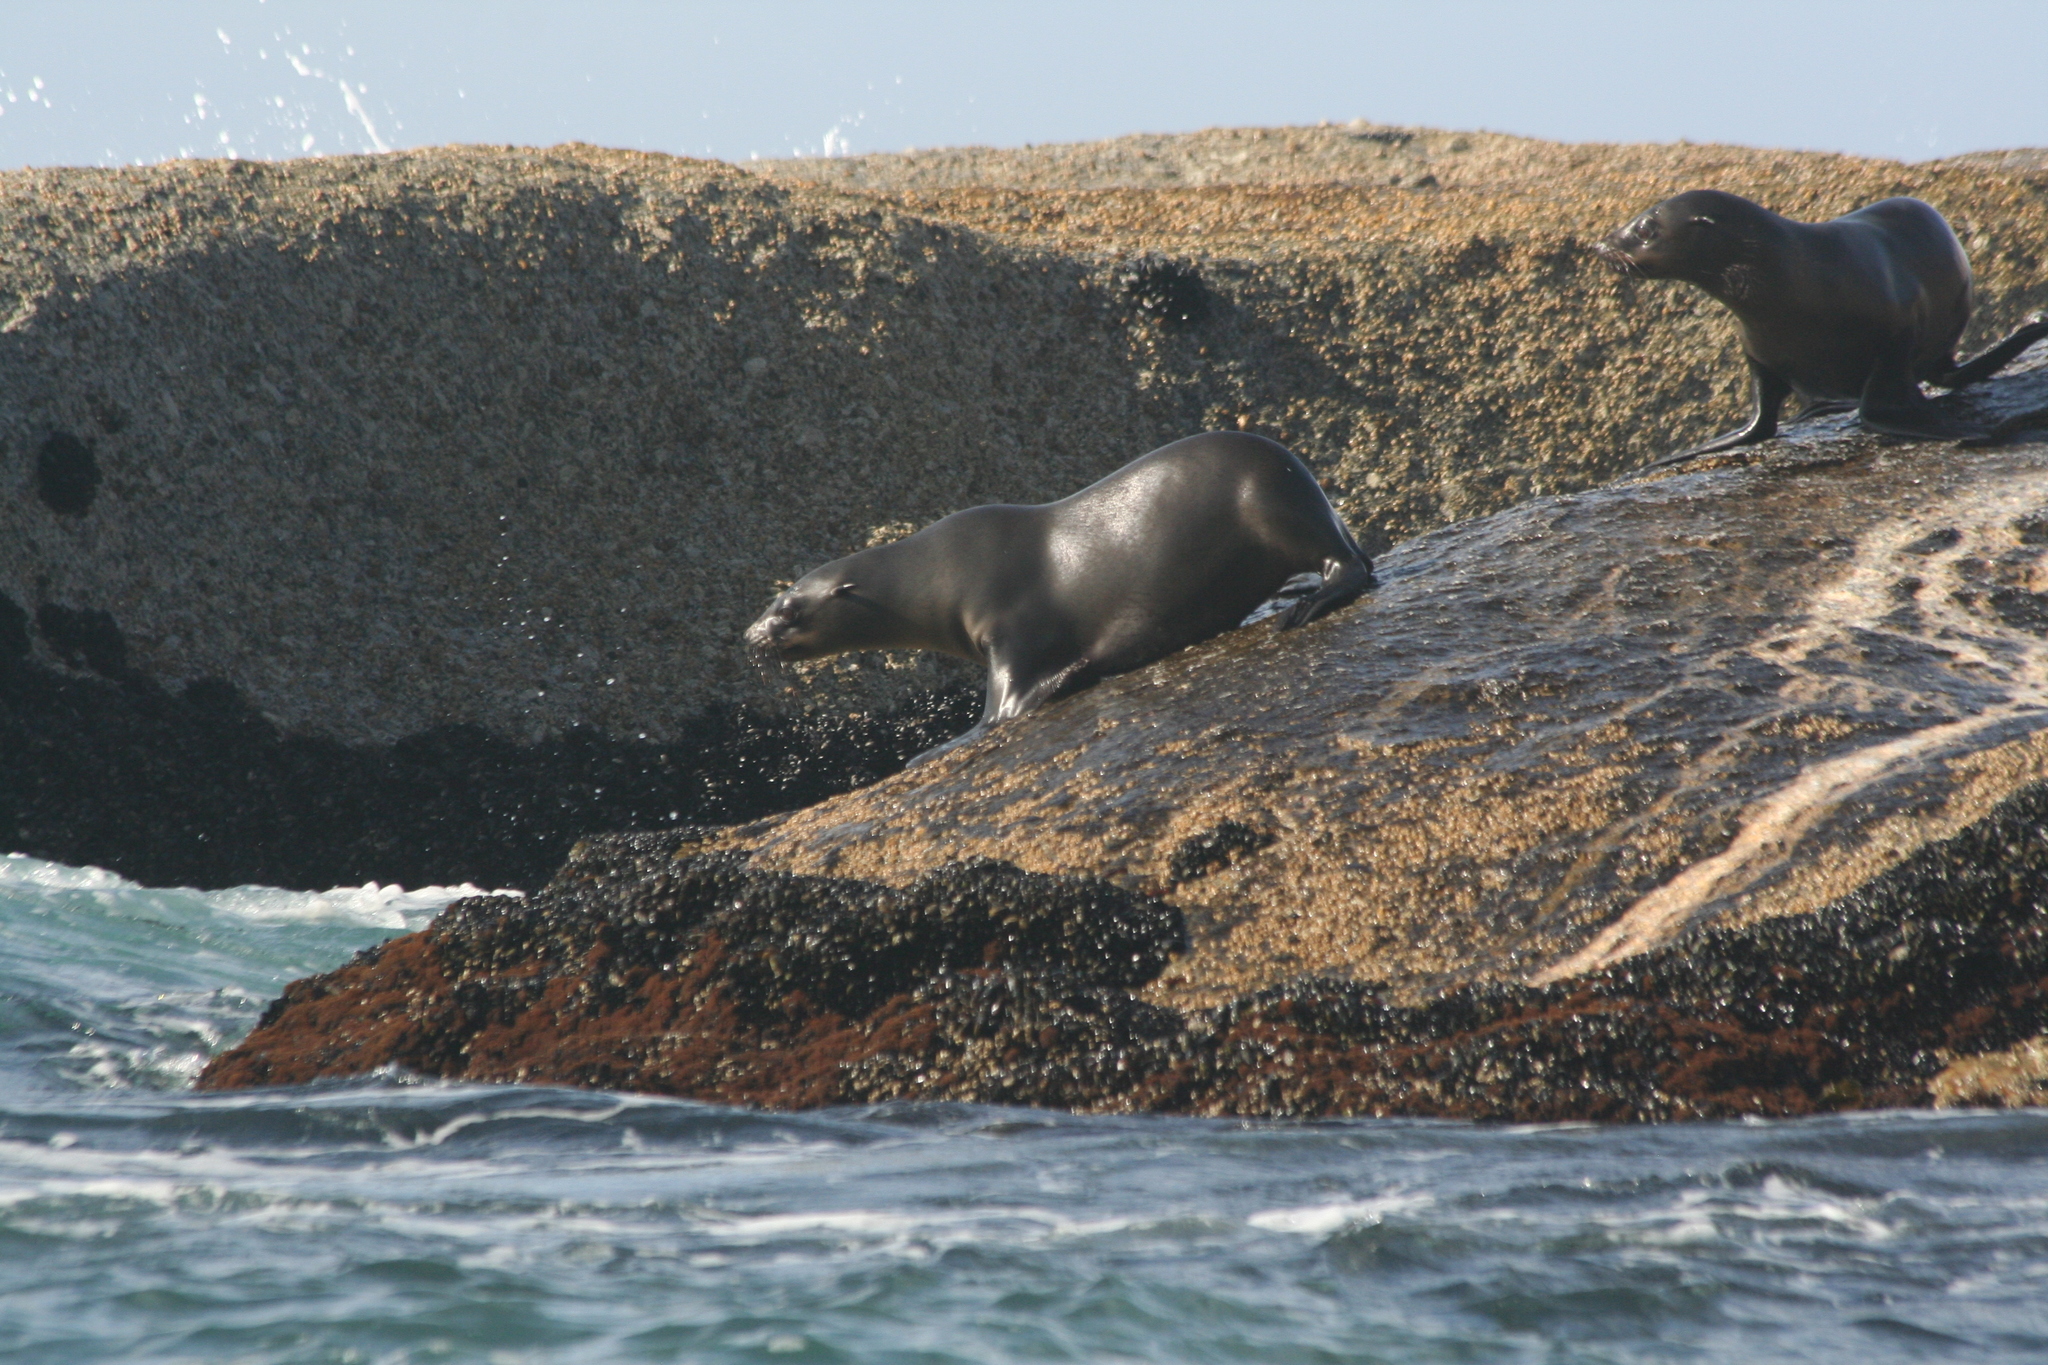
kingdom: Animalia
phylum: Chordata
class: Mammalia
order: Carnivora
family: Otariidae
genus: Arctocephalus
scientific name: Arctocephalus pusillus
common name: Brown fur seal
